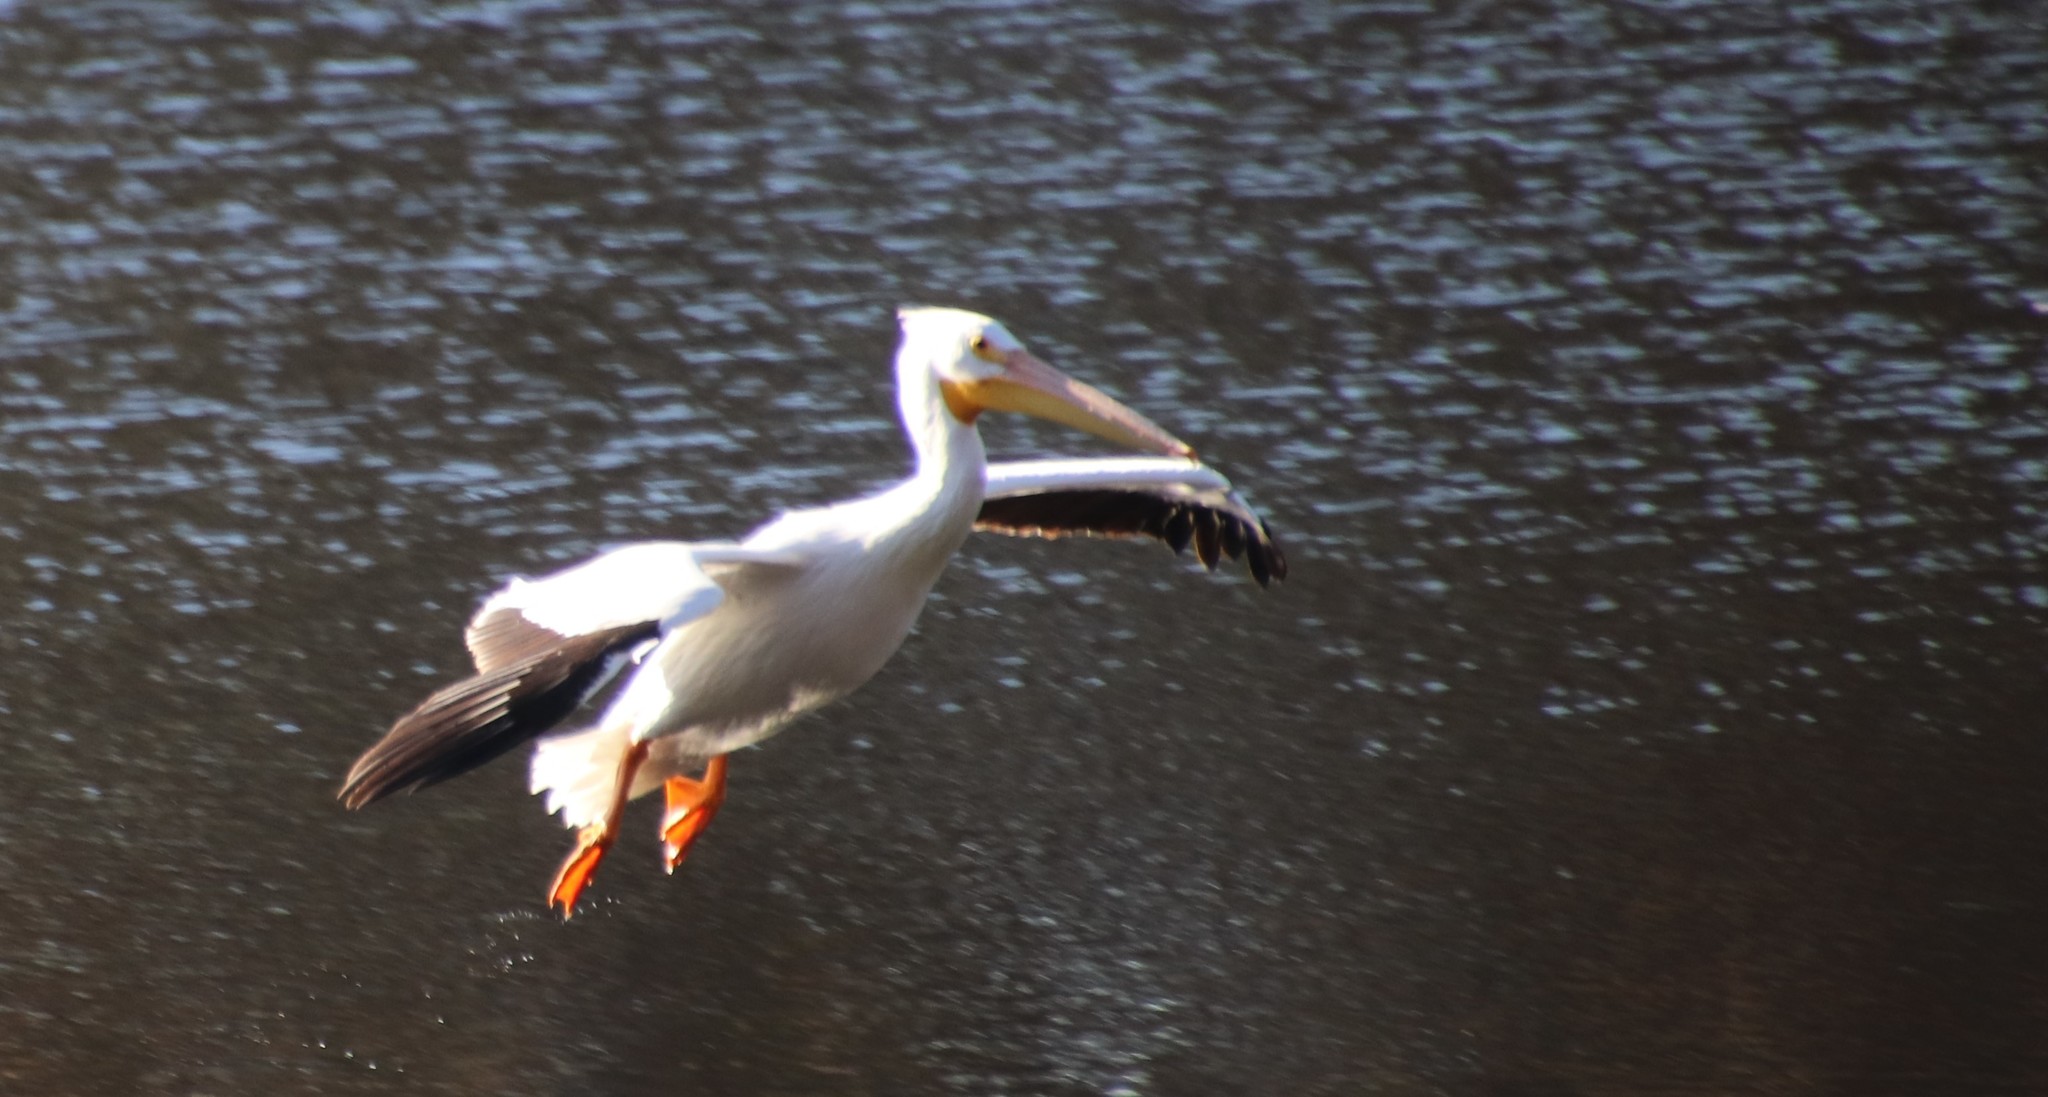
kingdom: Animalia
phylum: Chordata
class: Aves
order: Pelecaniformes
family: Pelecanidae
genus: Pelecanus
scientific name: Pelecanus erythrorhynchos
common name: American white pelican
